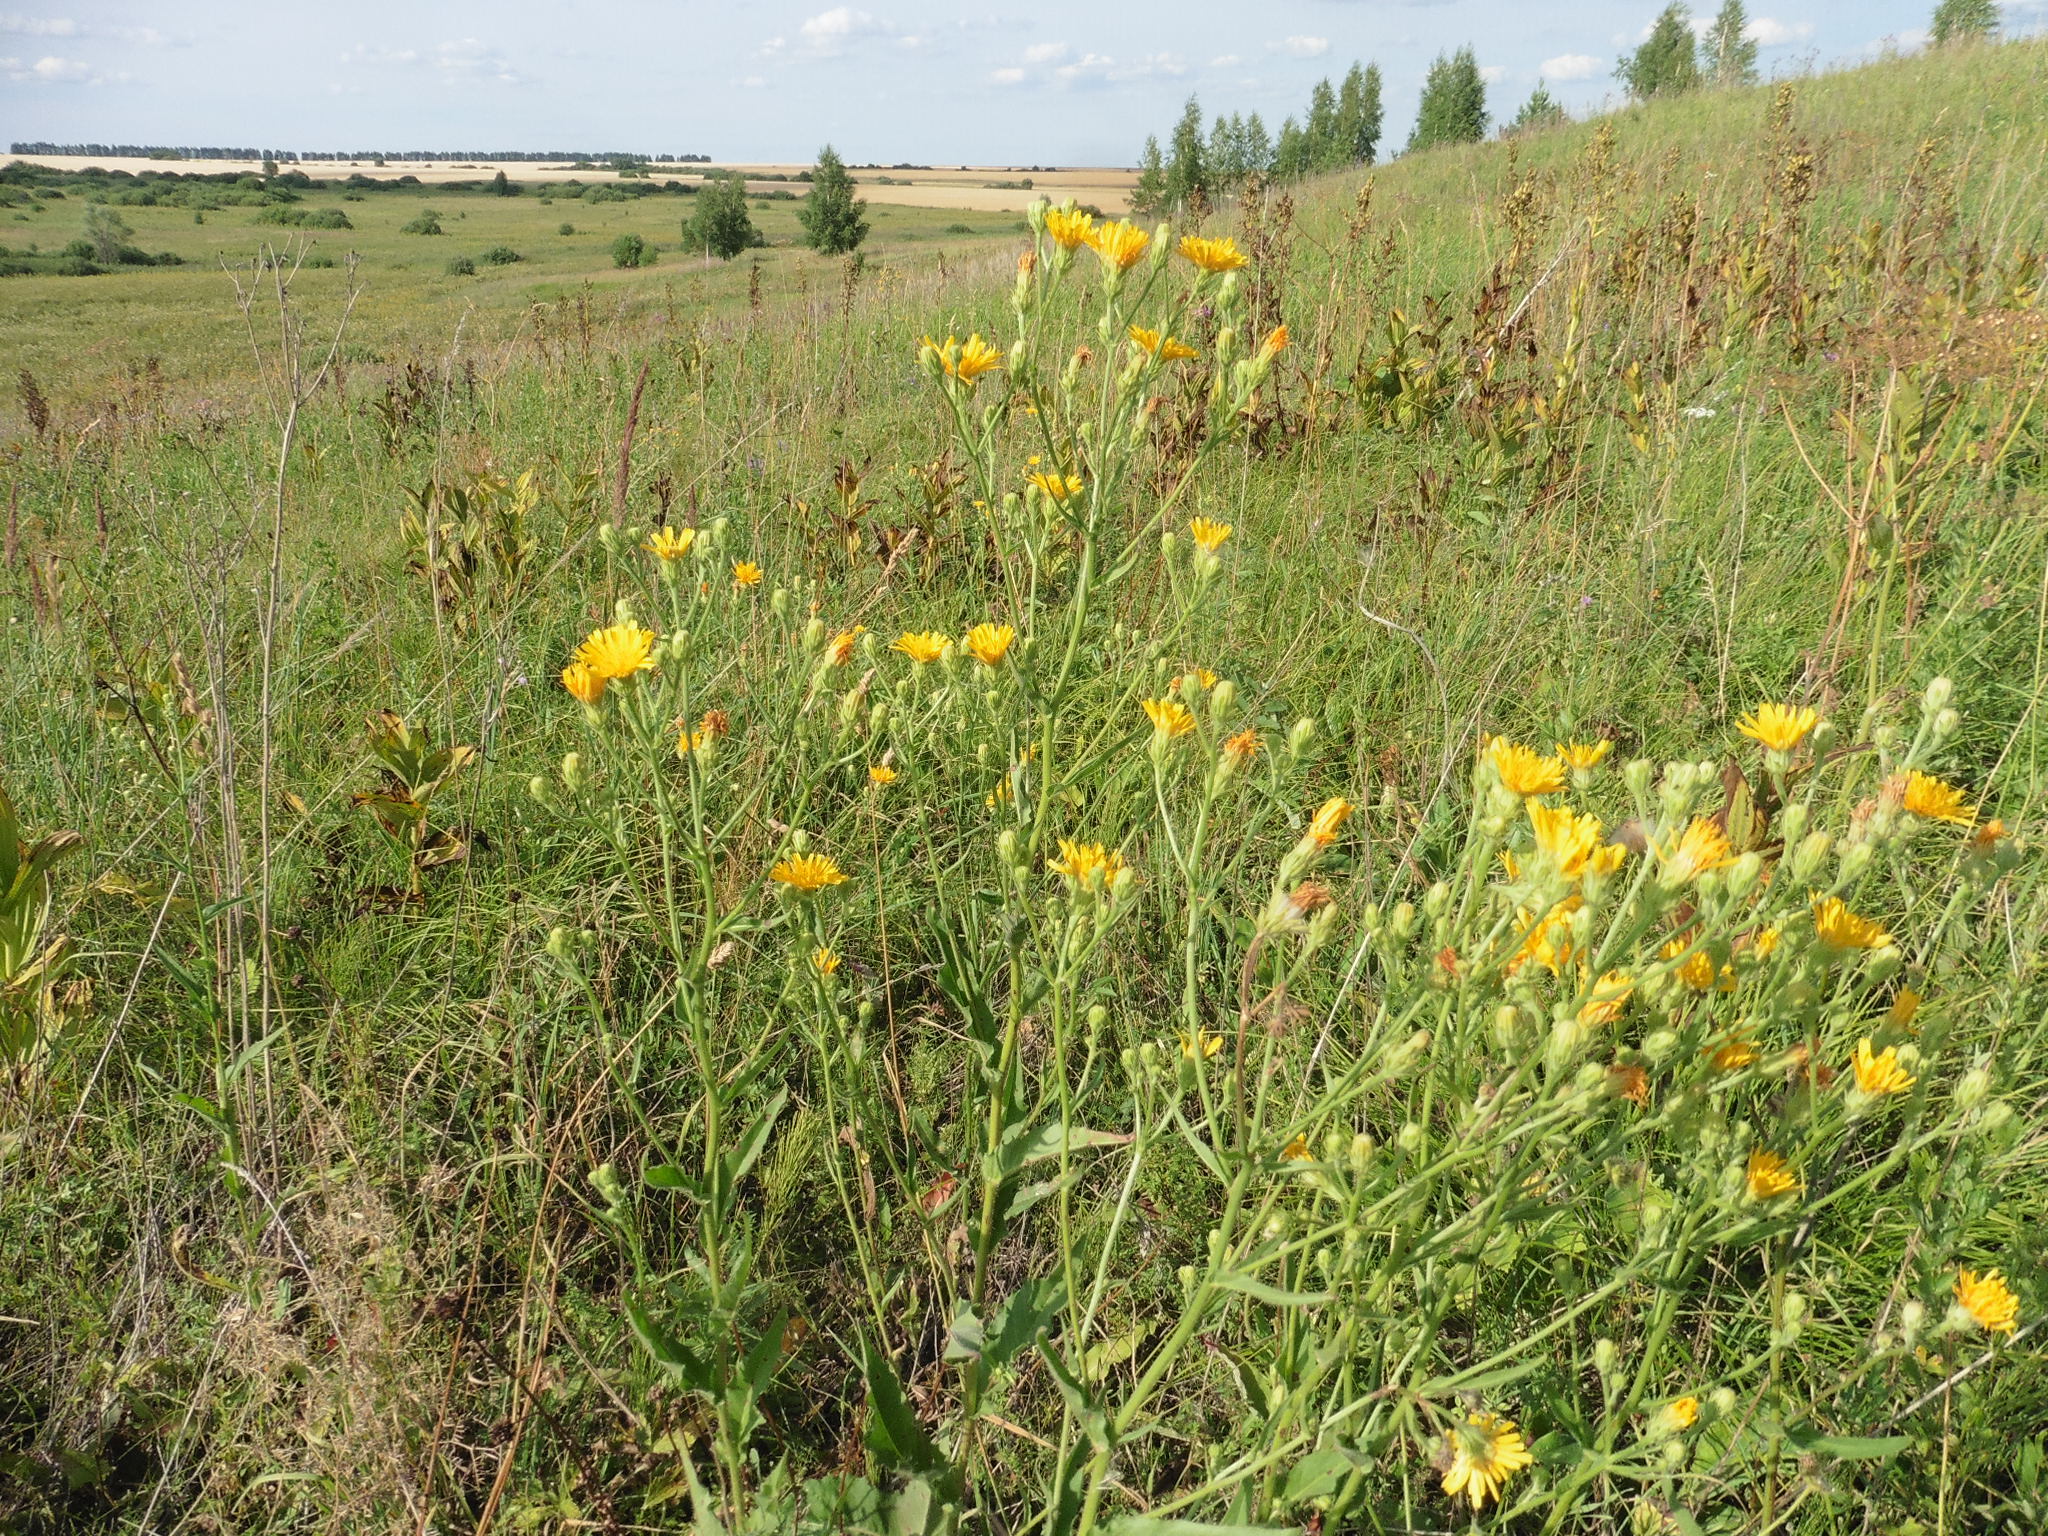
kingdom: Plantae
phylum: Tracheophyta
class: Magnoliopsida
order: Asterales
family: Asteraceae
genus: Picris
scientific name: Picris hieracioides
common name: Hawkweed oxtongue
